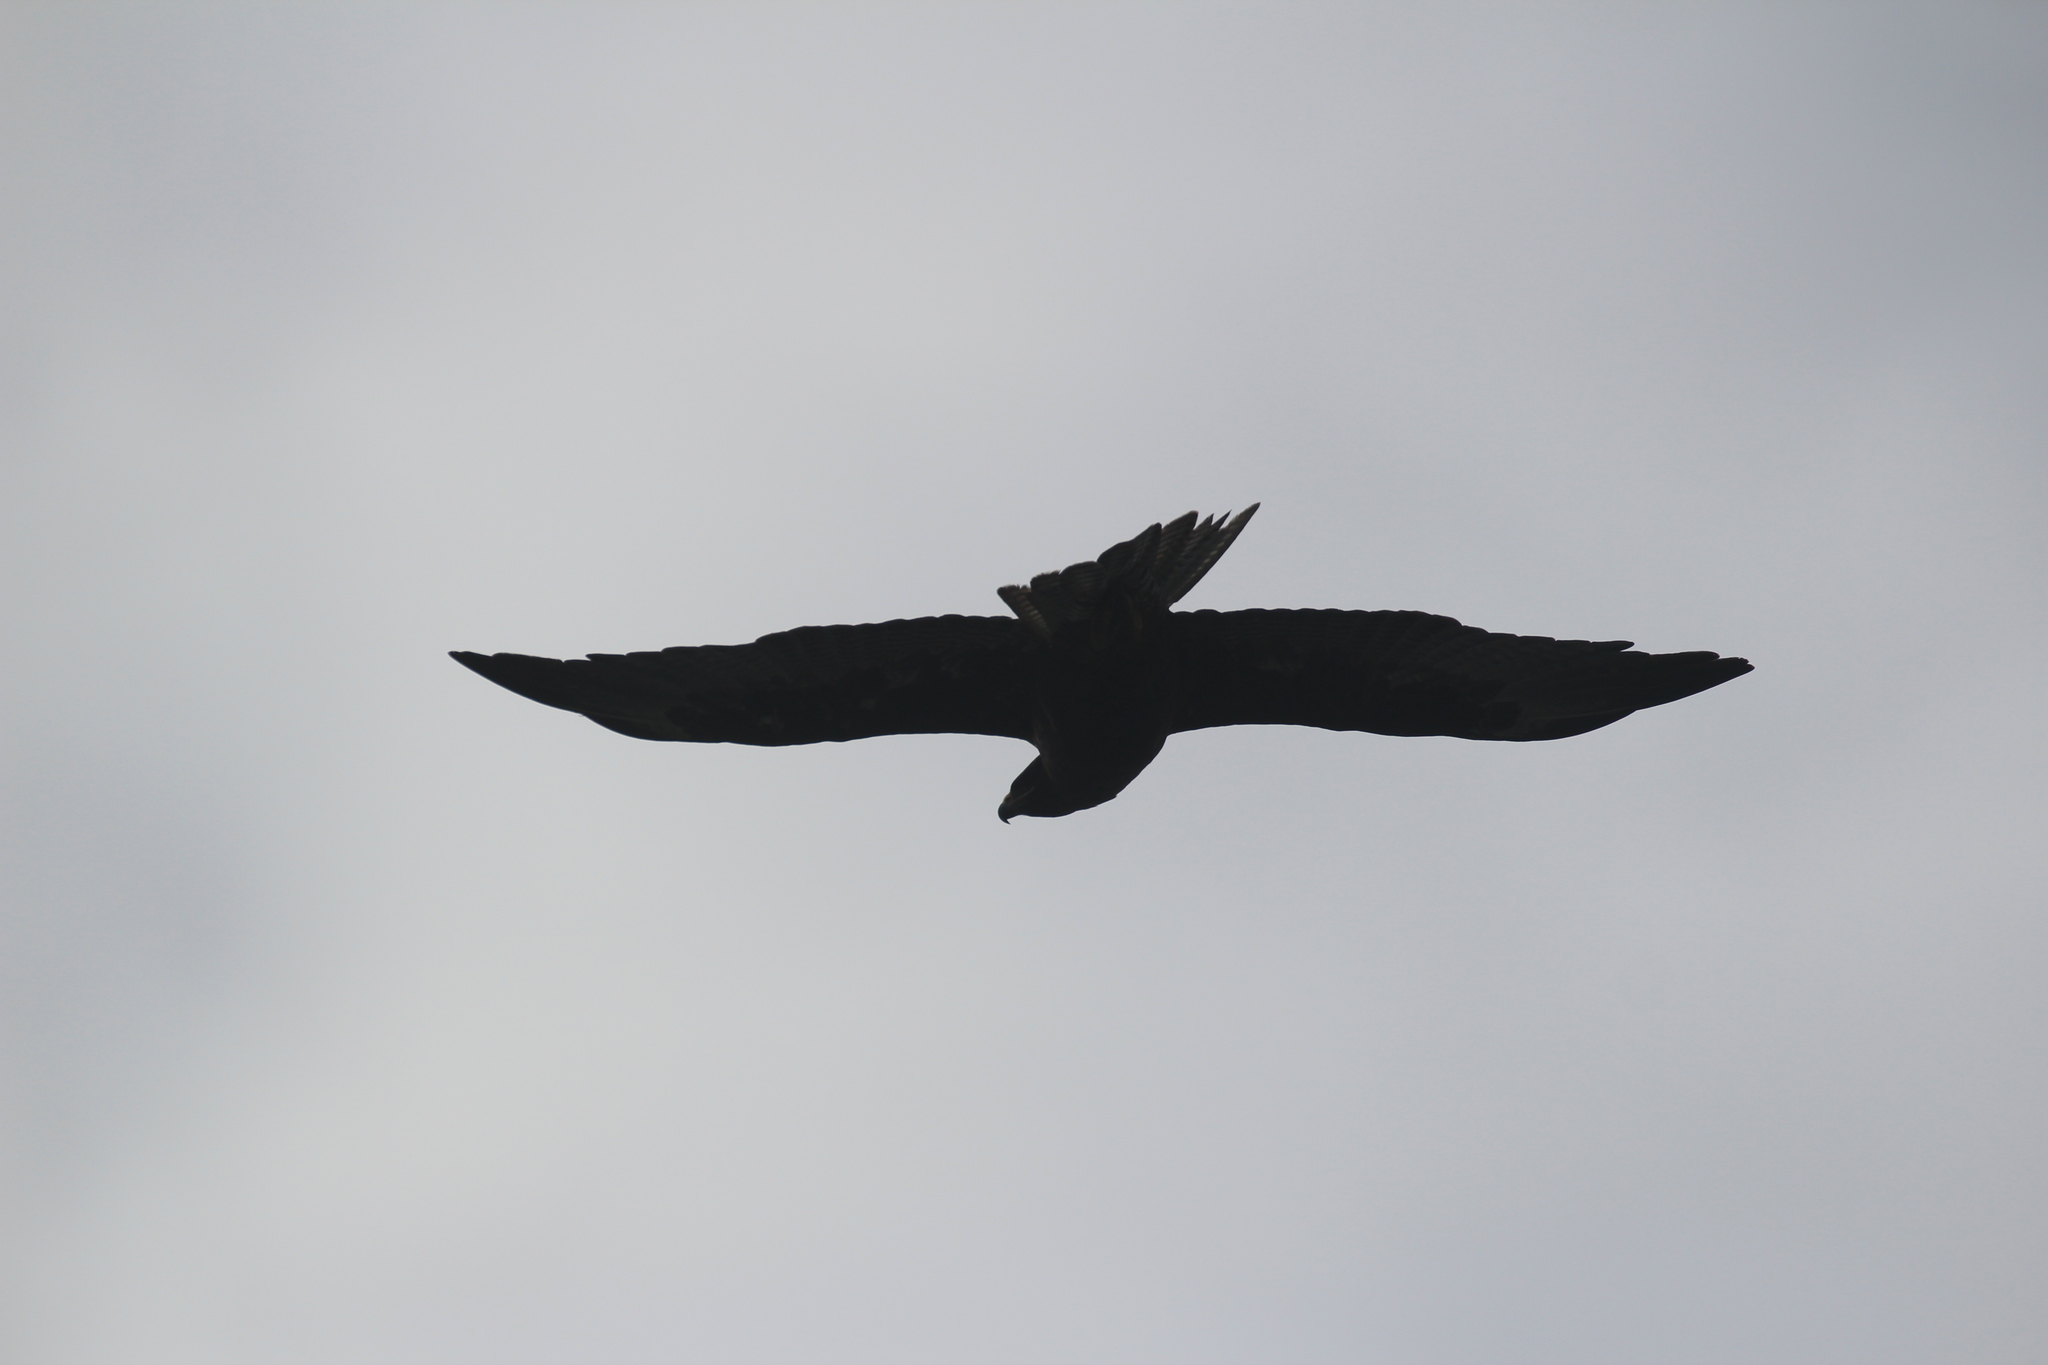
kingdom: Animalia
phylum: Chordata
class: Aves
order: Accipitriformes
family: Accipitridae
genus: Buteo
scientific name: Buteo galapagoensis
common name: Galapagos hawk
